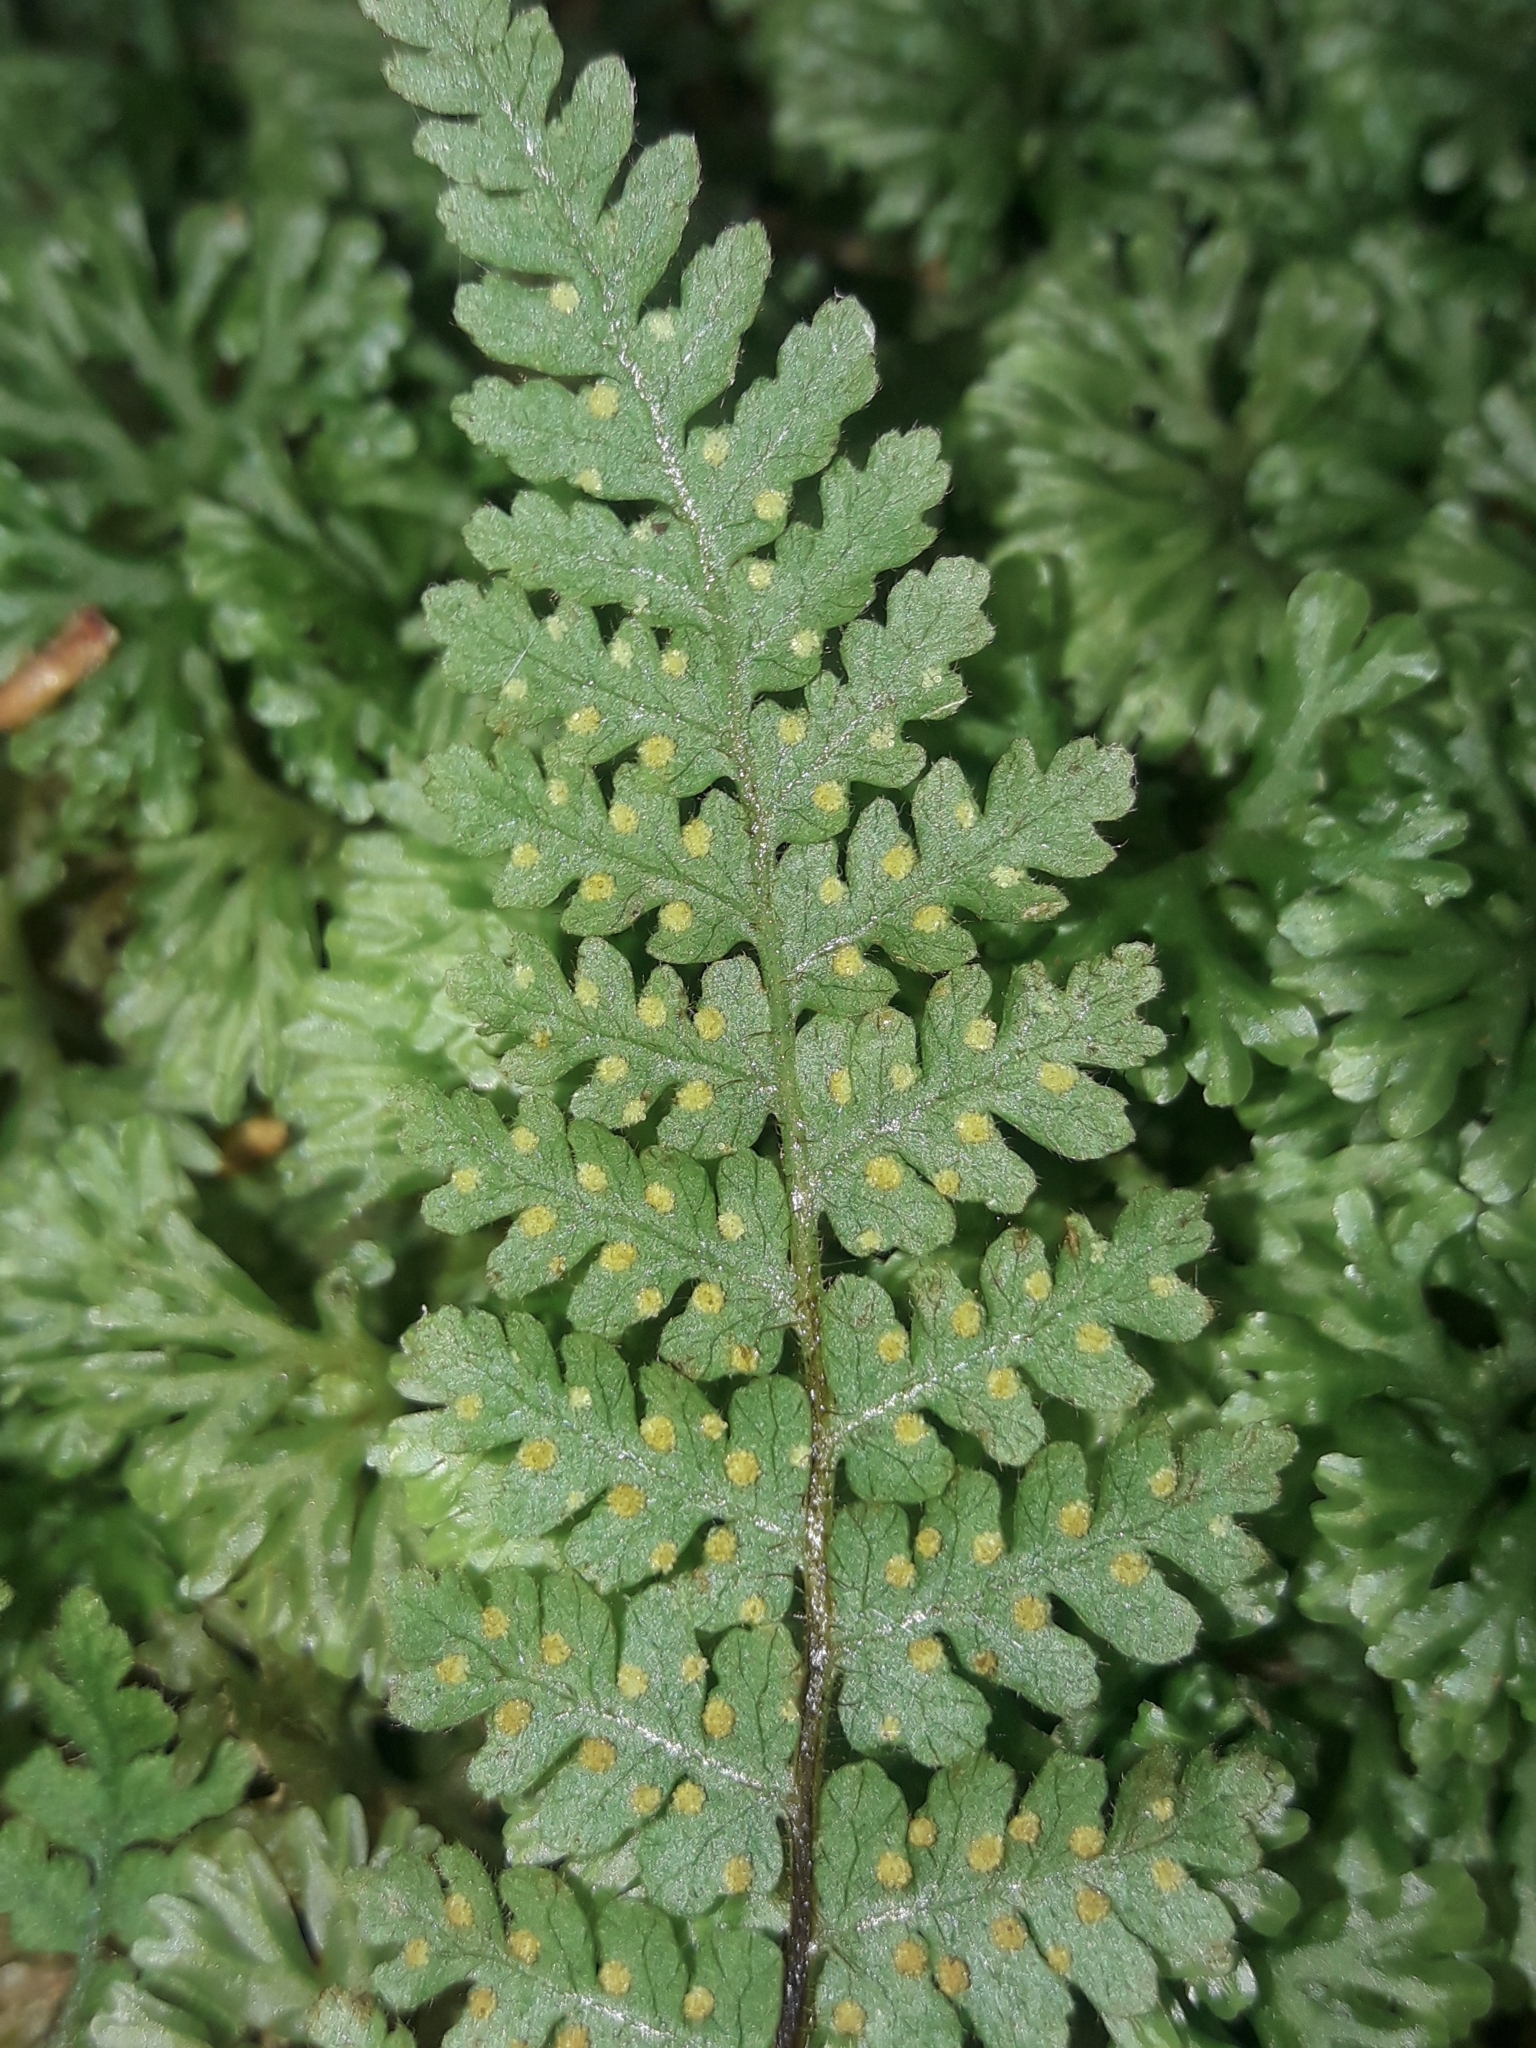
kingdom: Plantae
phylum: Tracheophyta
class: Polypodiopsida
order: Polypodiales
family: Dennstaedtiaceae
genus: Hypolepis
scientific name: Hypolepis rugosula
